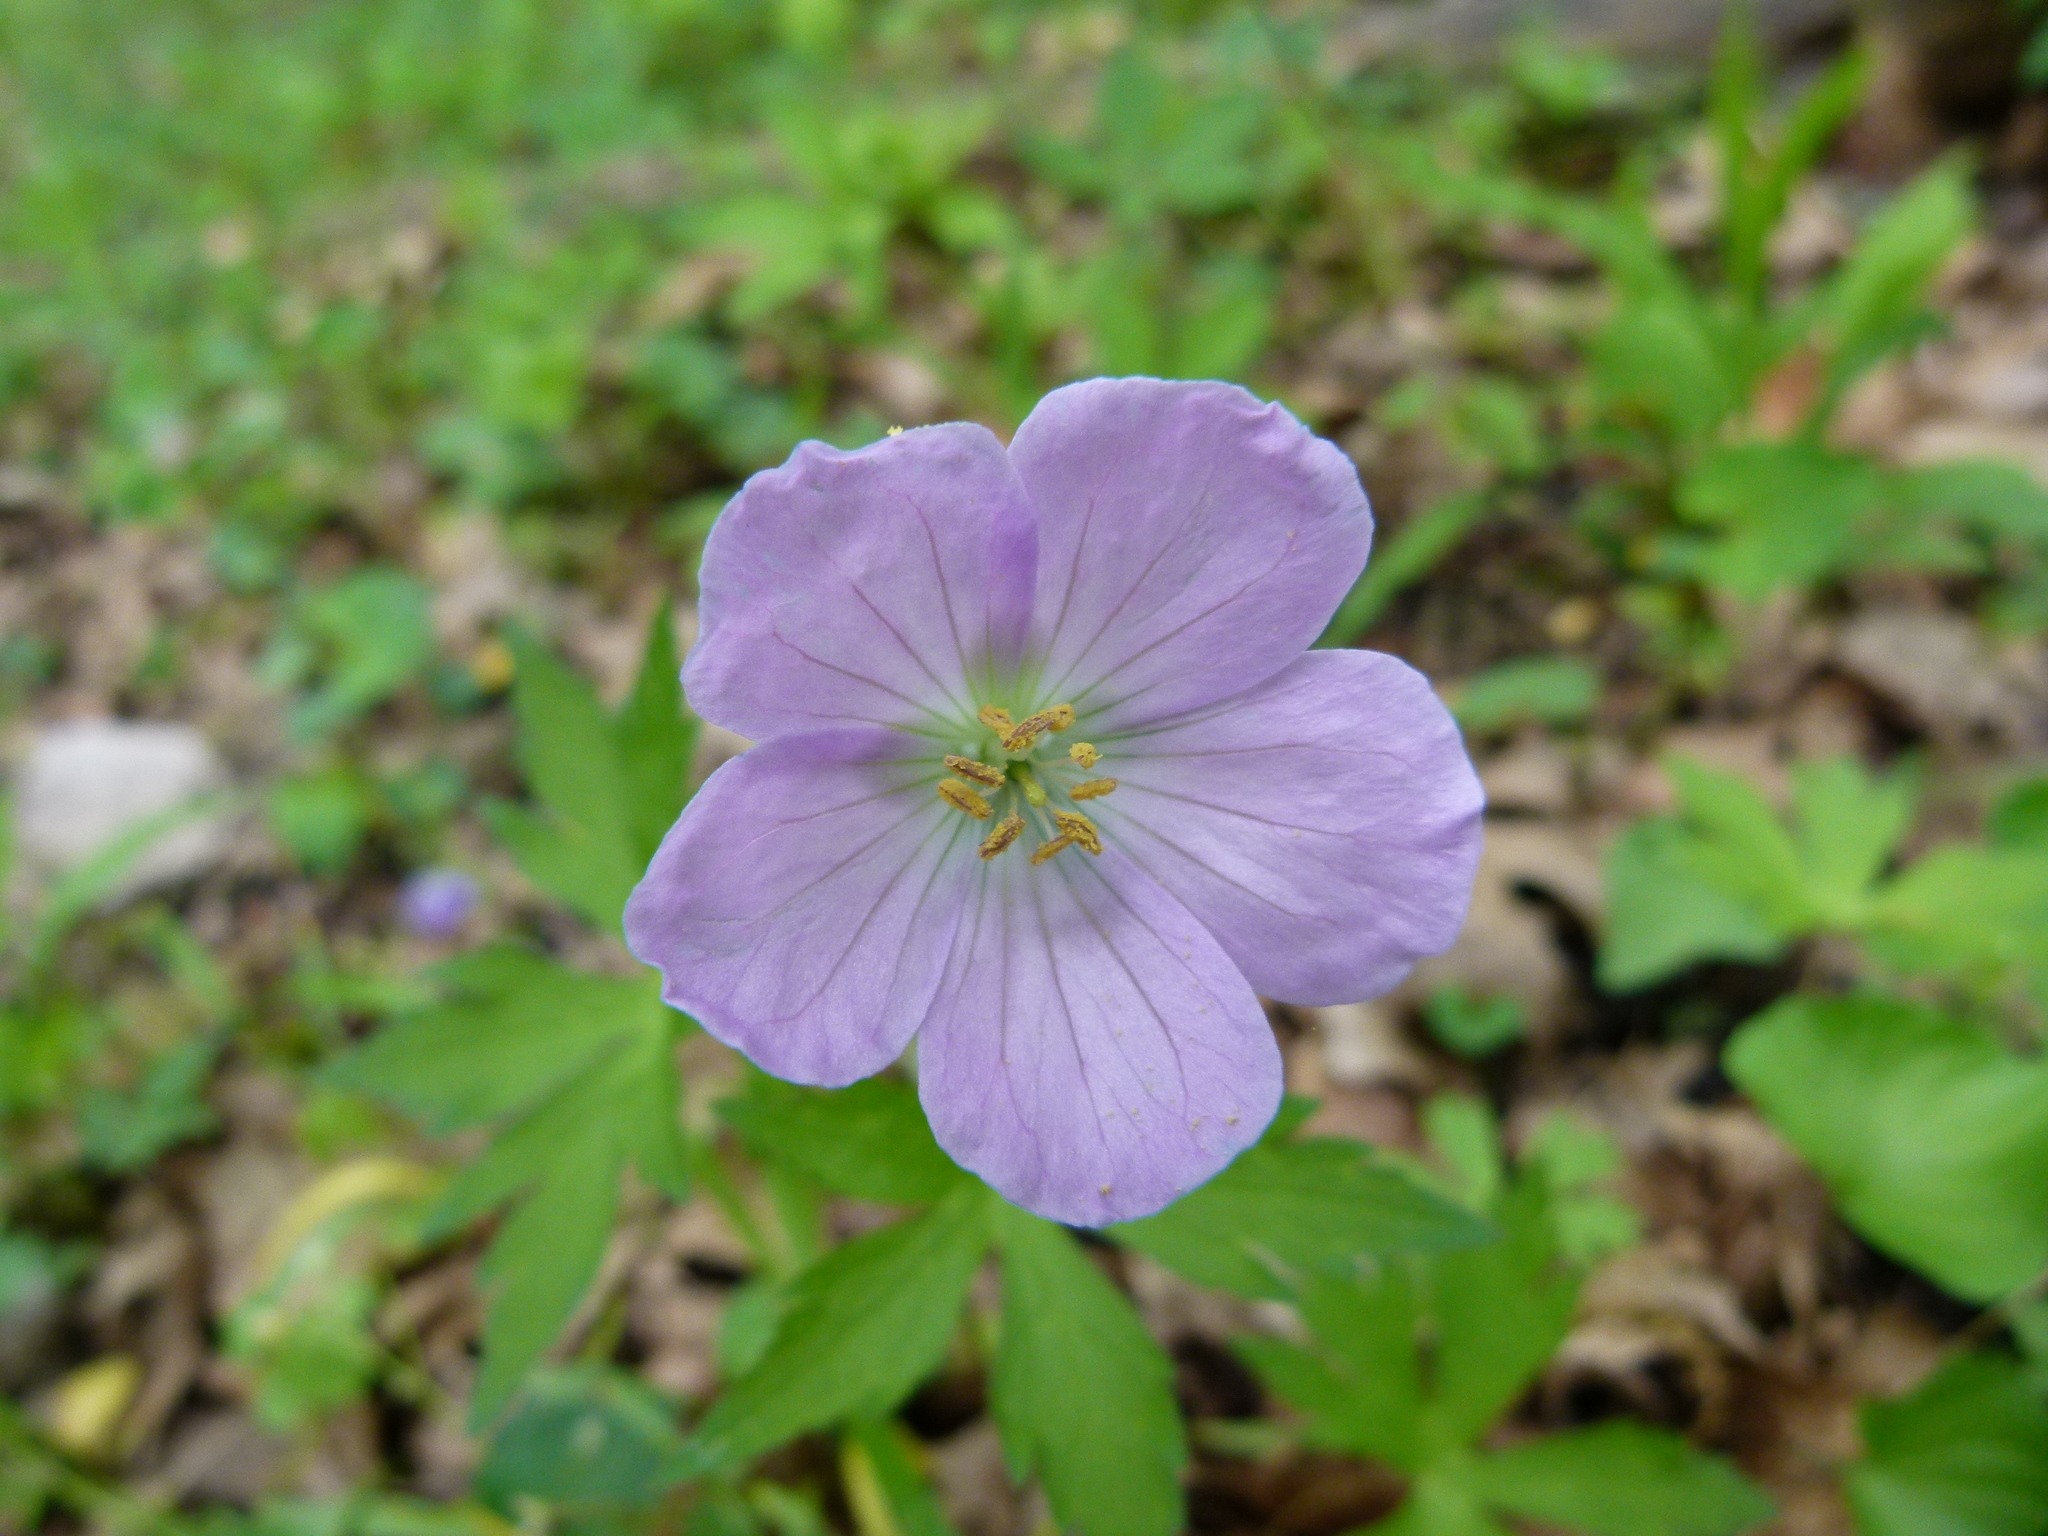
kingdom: Plantae
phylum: Tracheophyta
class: Magnoliopsida
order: Geraniales
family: Geraniaceae
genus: Geranium
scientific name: Geranium maculatum
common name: Spotted geranium
